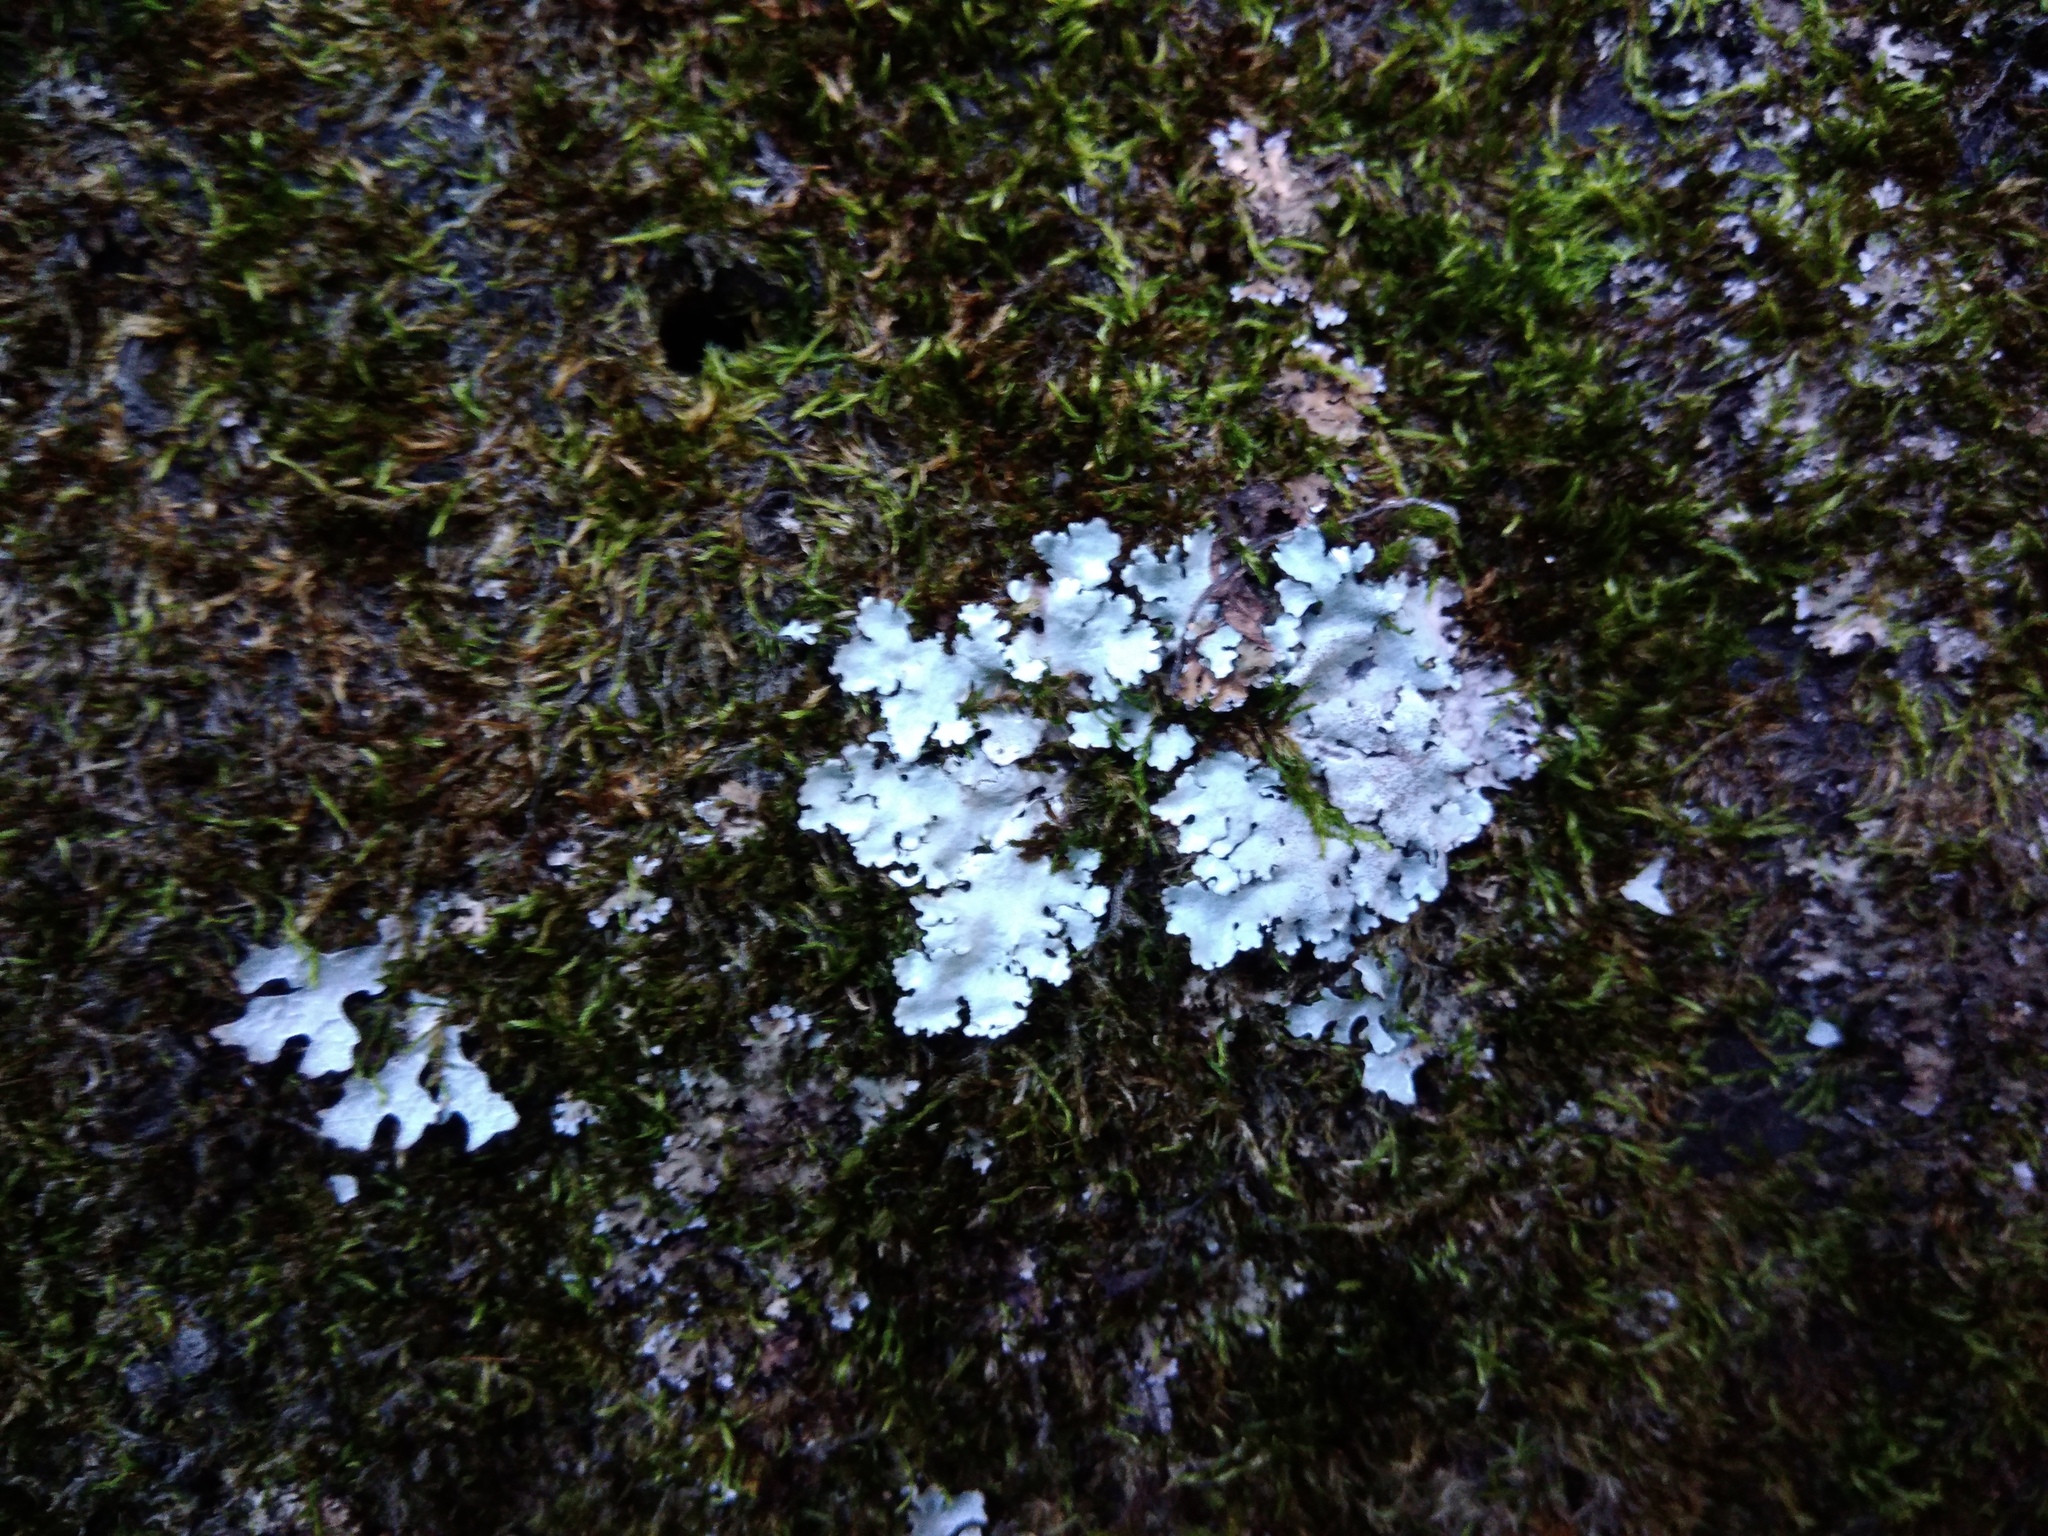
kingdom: Fungi
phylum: Ascomycota
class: Lecanoromycetes
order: Lecanorales
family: Parmeliaceae
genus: Parmelina
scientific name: Parmelina tiliacea
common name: Linden shield lichen
